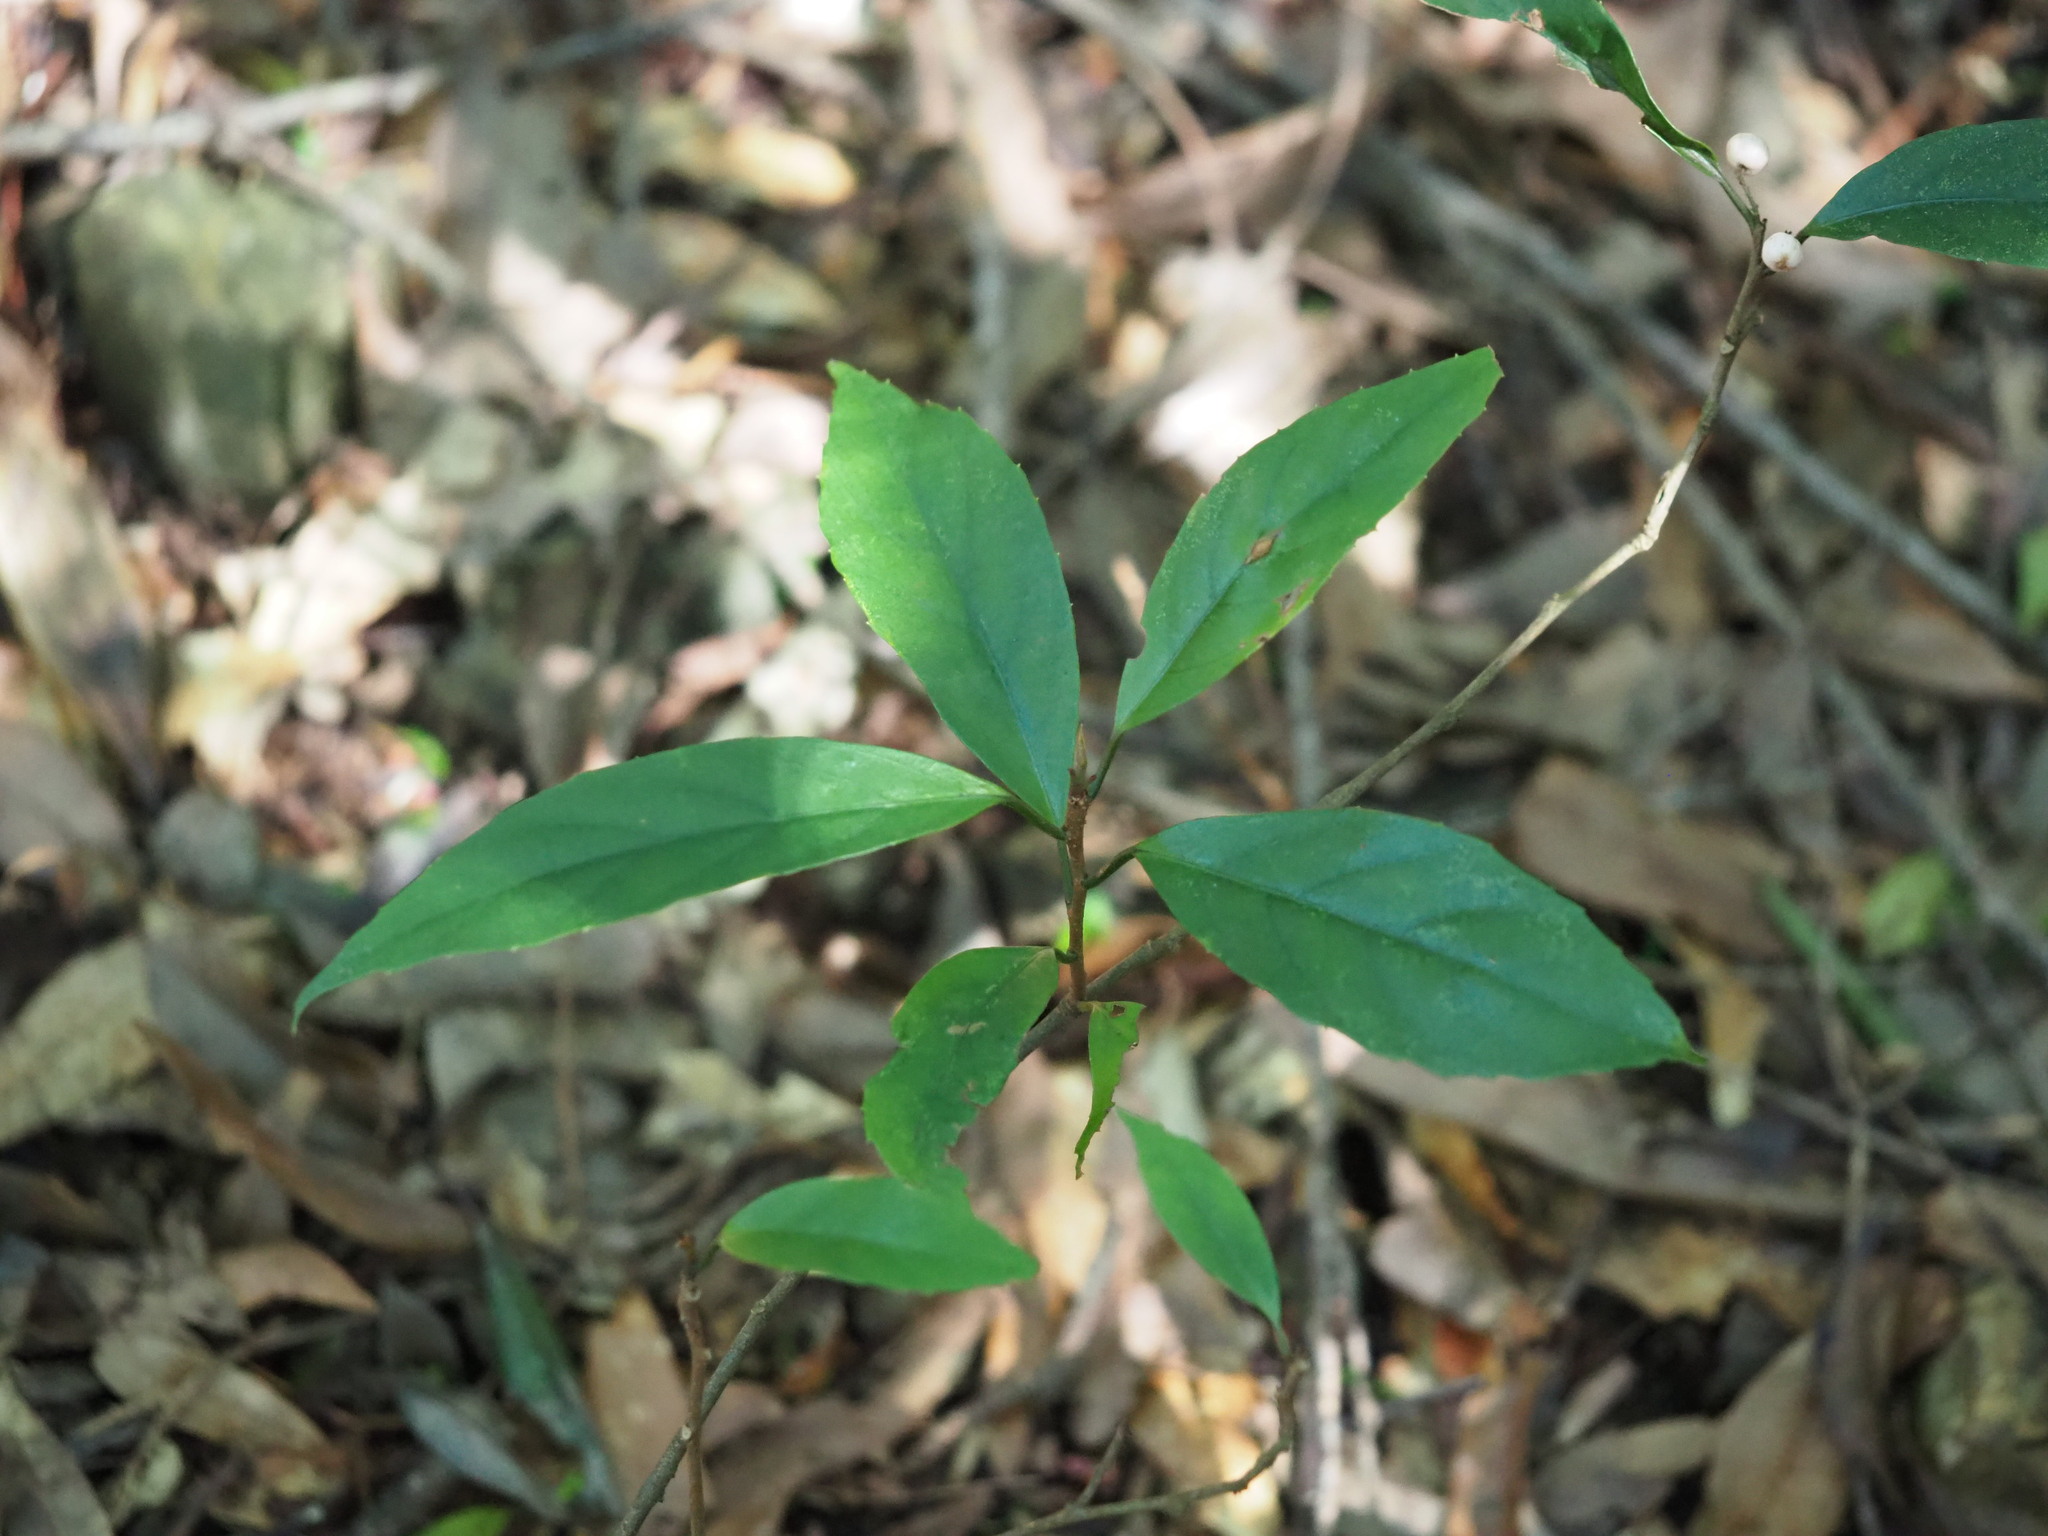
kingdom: Plantae
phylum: Tracheophyta
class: Magnoliopsida
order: Ericales
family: Primulaceae
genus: Maesa
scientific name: Maesa japonica
